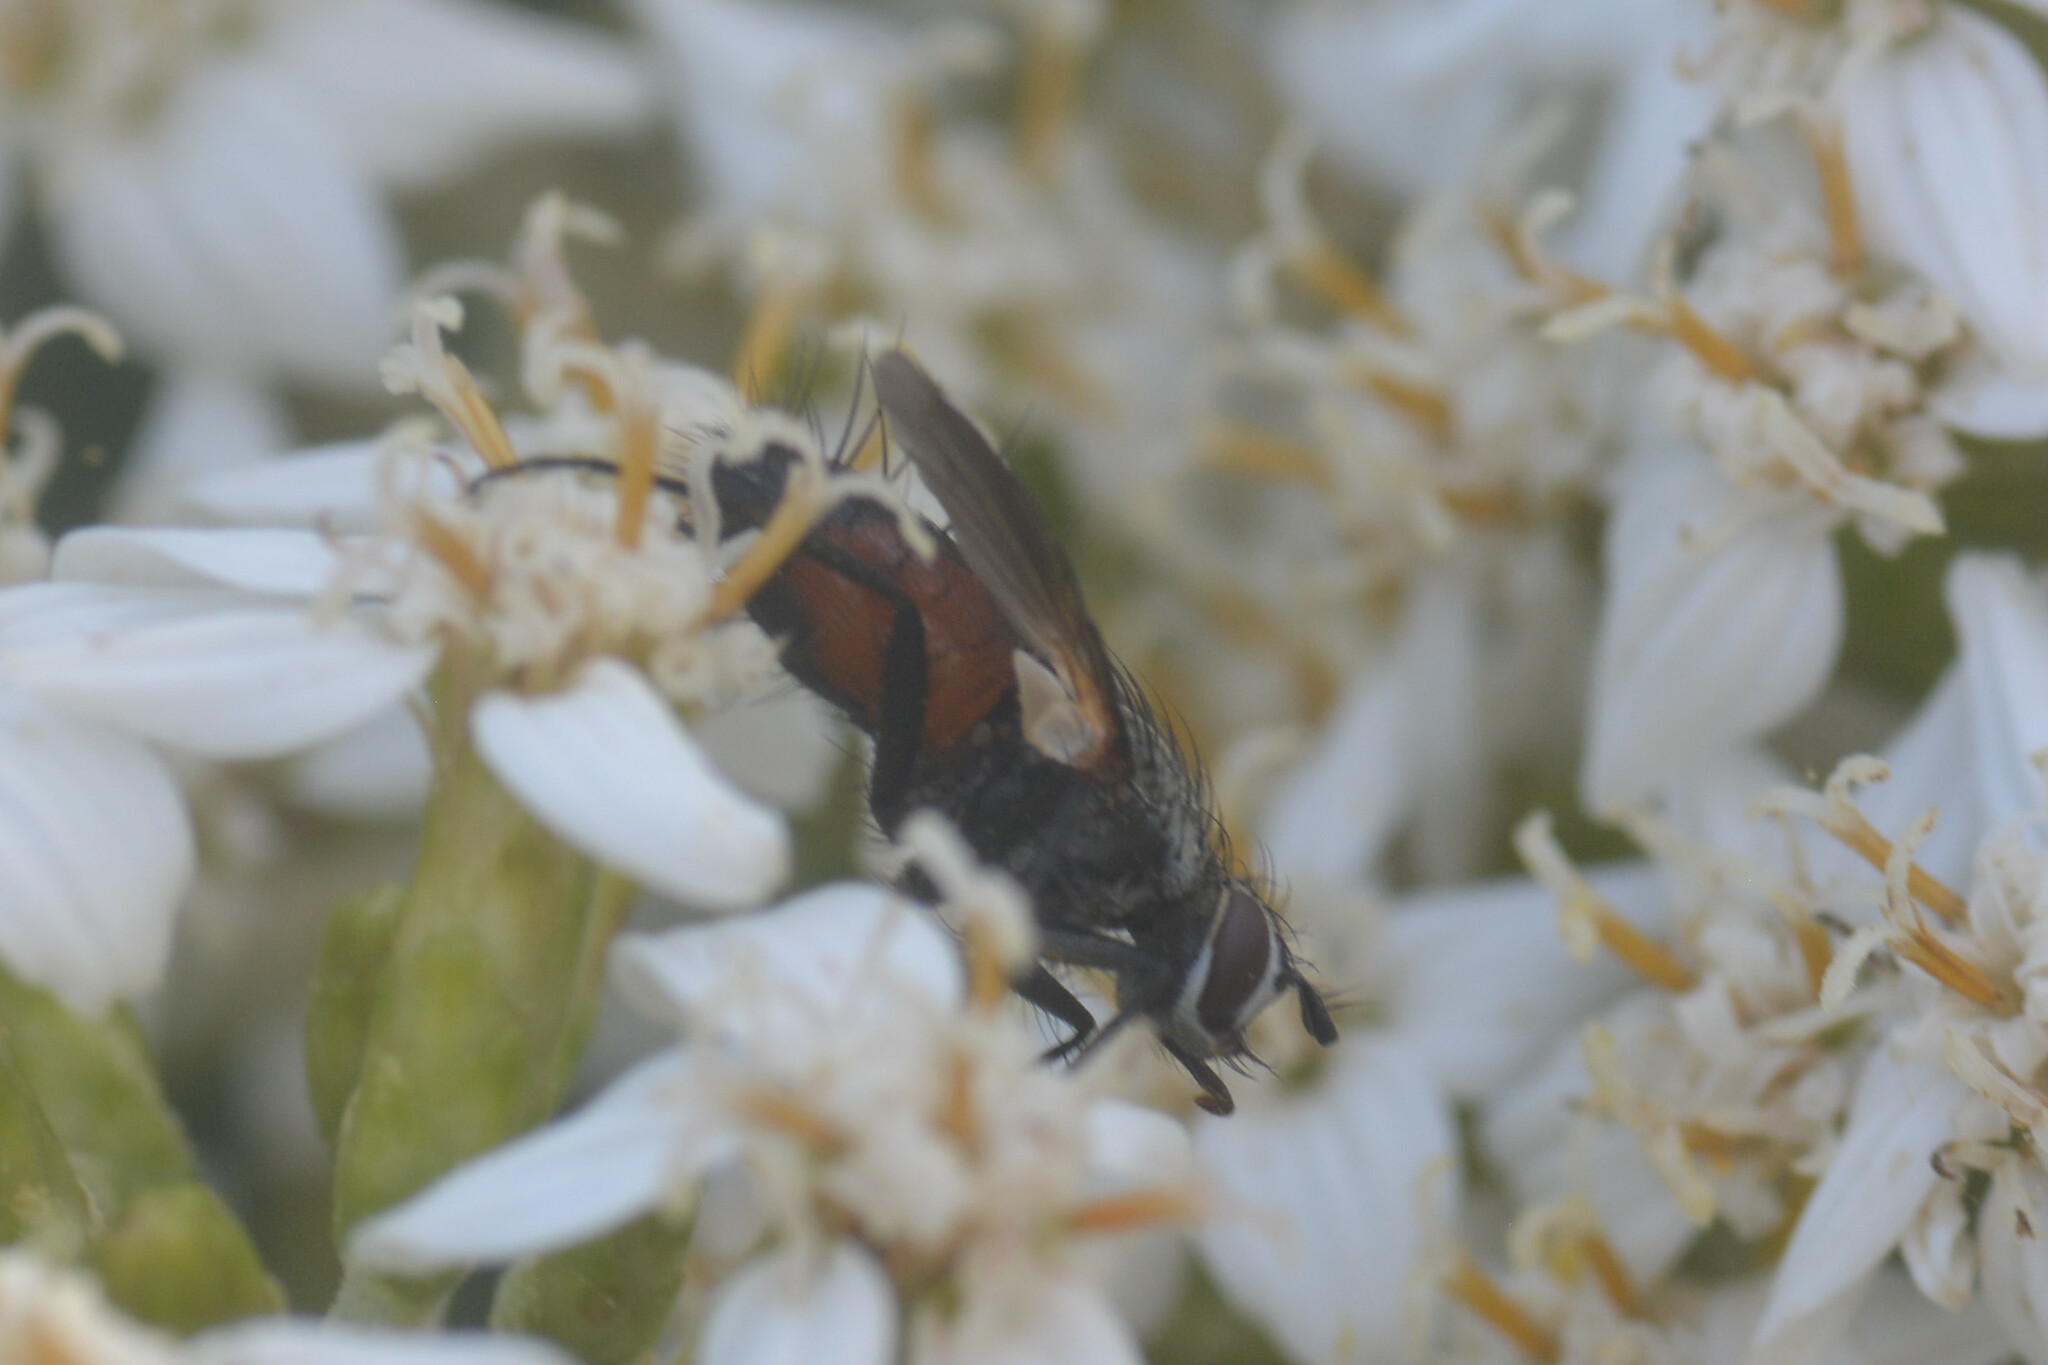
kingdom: Animalia
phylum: Arthropoda
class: Insecta
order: Diptera
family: Tachinidae
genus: Eriothrix
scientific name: Eriothrix rufomaculatus
